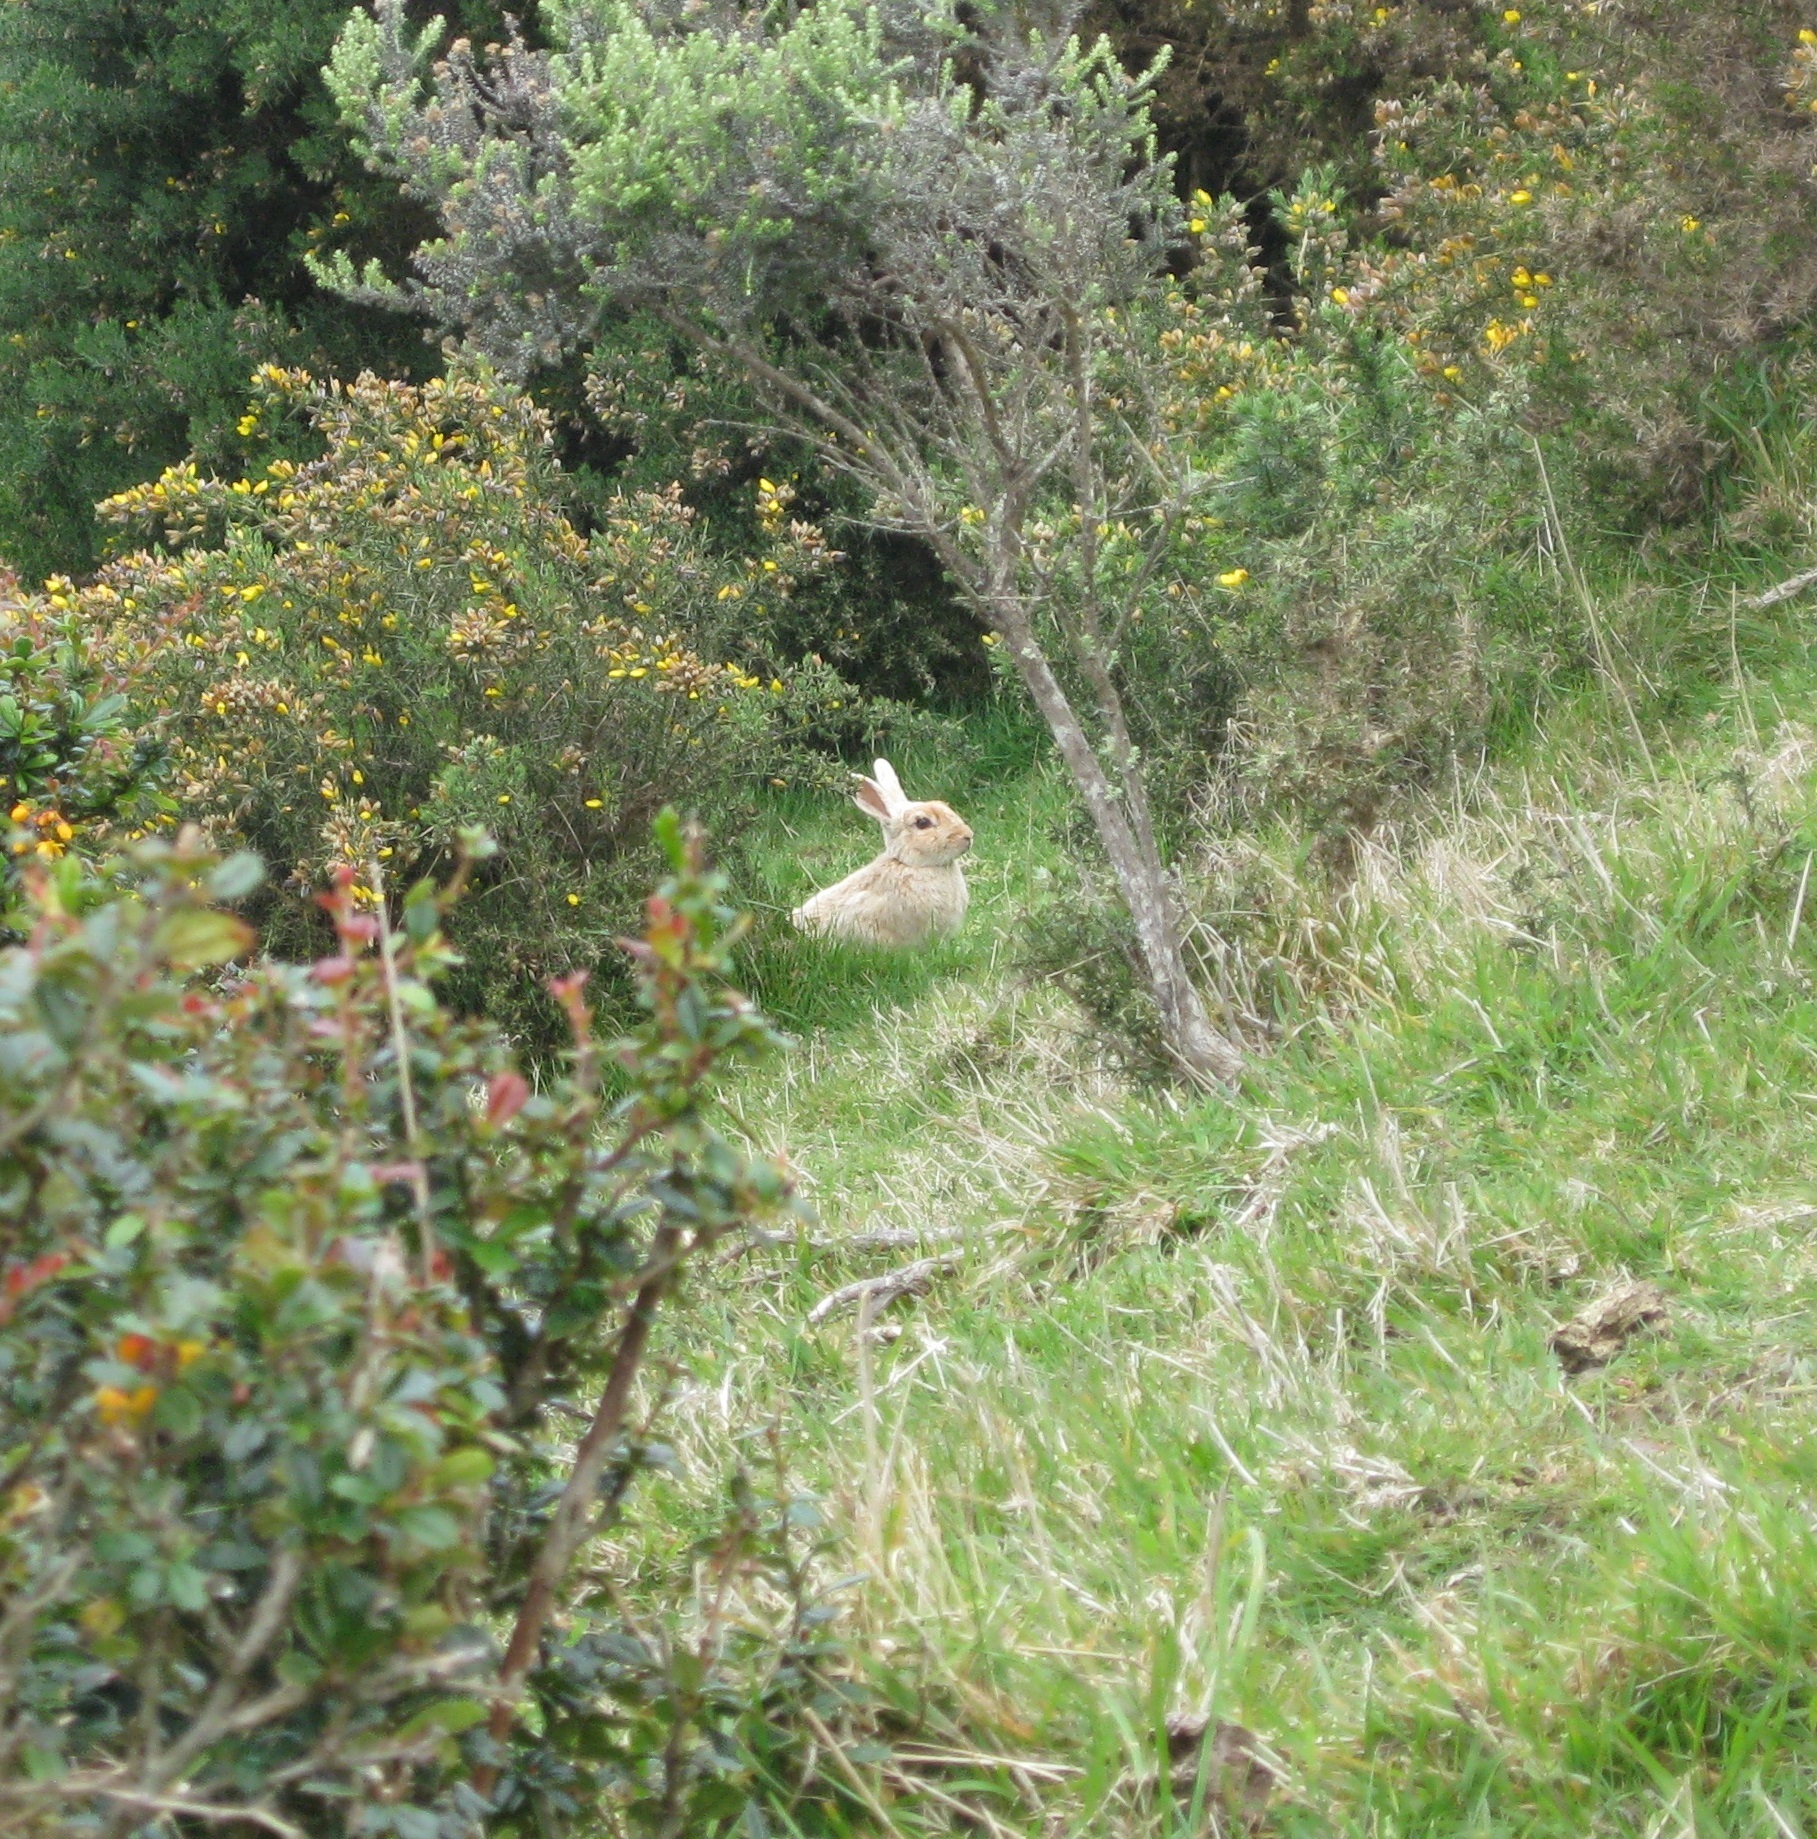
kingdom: Animalia
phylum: Chordata
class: Mammalia
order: Lagomorpha
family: Leporidae
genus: Oryctolagus
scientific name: Oryctolagus cuniculus
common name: European rabbit
